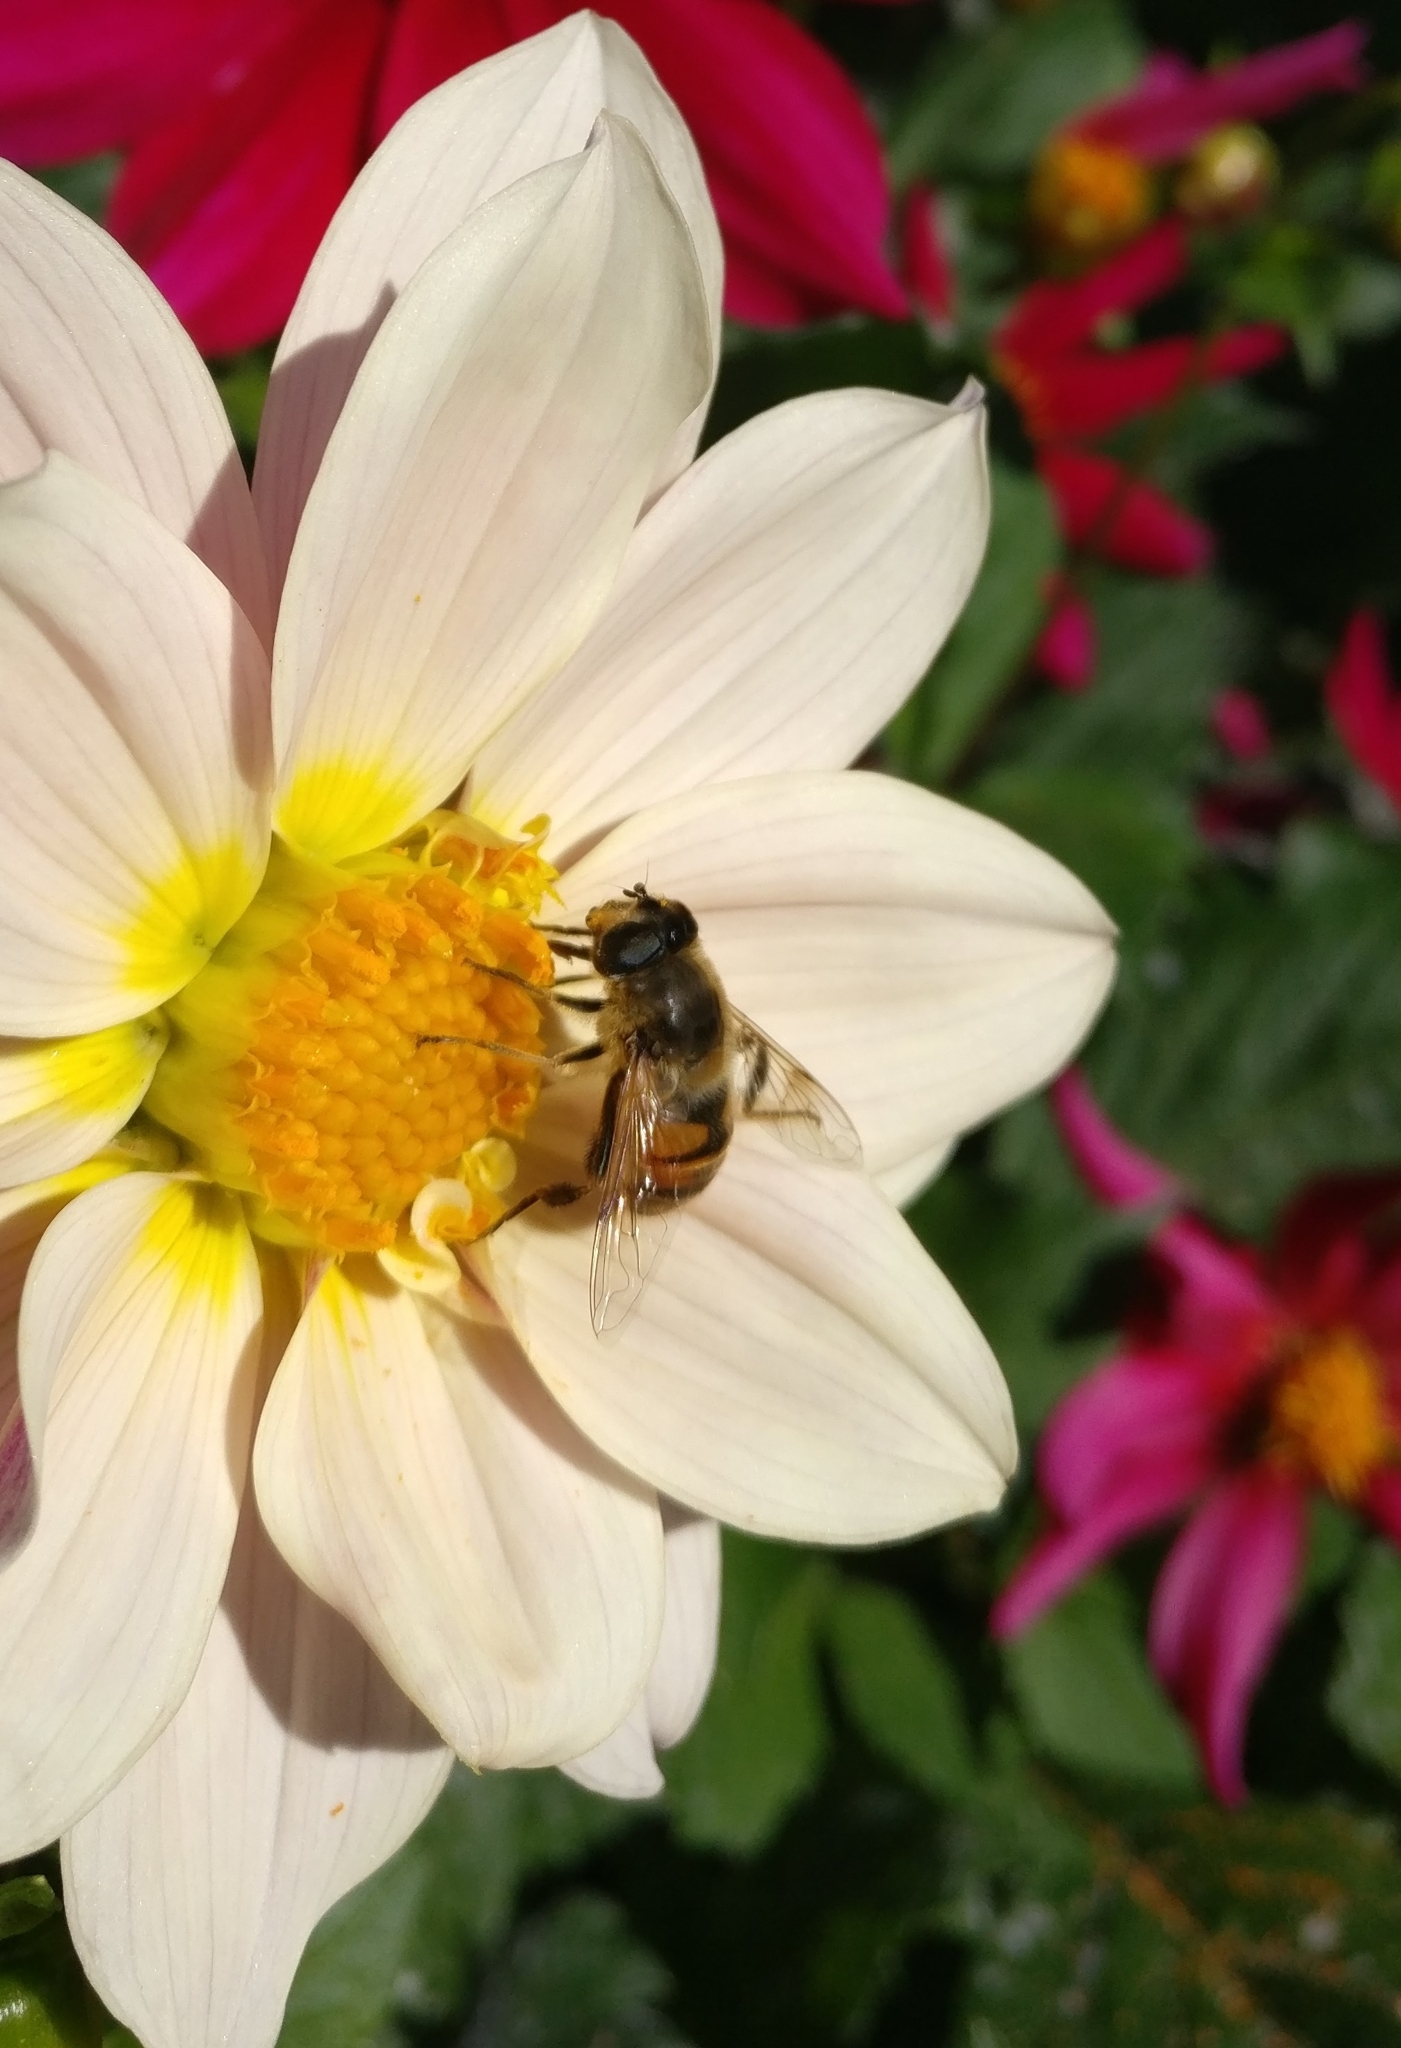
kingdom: Animalia
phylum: Arthropoda
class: Insecta
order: Diptera
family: Syrphidae
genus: Eristalis
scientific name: Eristalis tenax
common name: Drone fly
